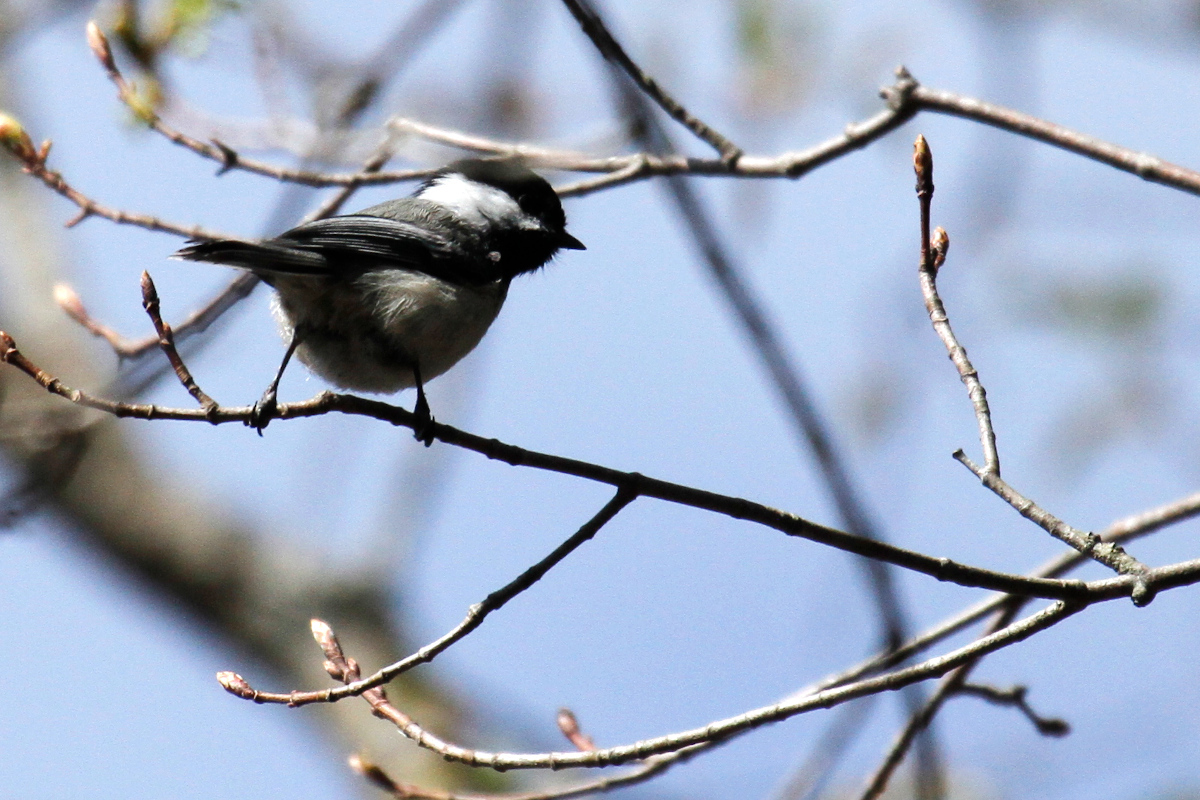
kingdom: Animalia
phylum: Chordata
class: Aves
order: Passeriformes
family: Paridae
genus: Poecile
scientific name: Poecile atricapillus
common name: Black-capped chickadee
